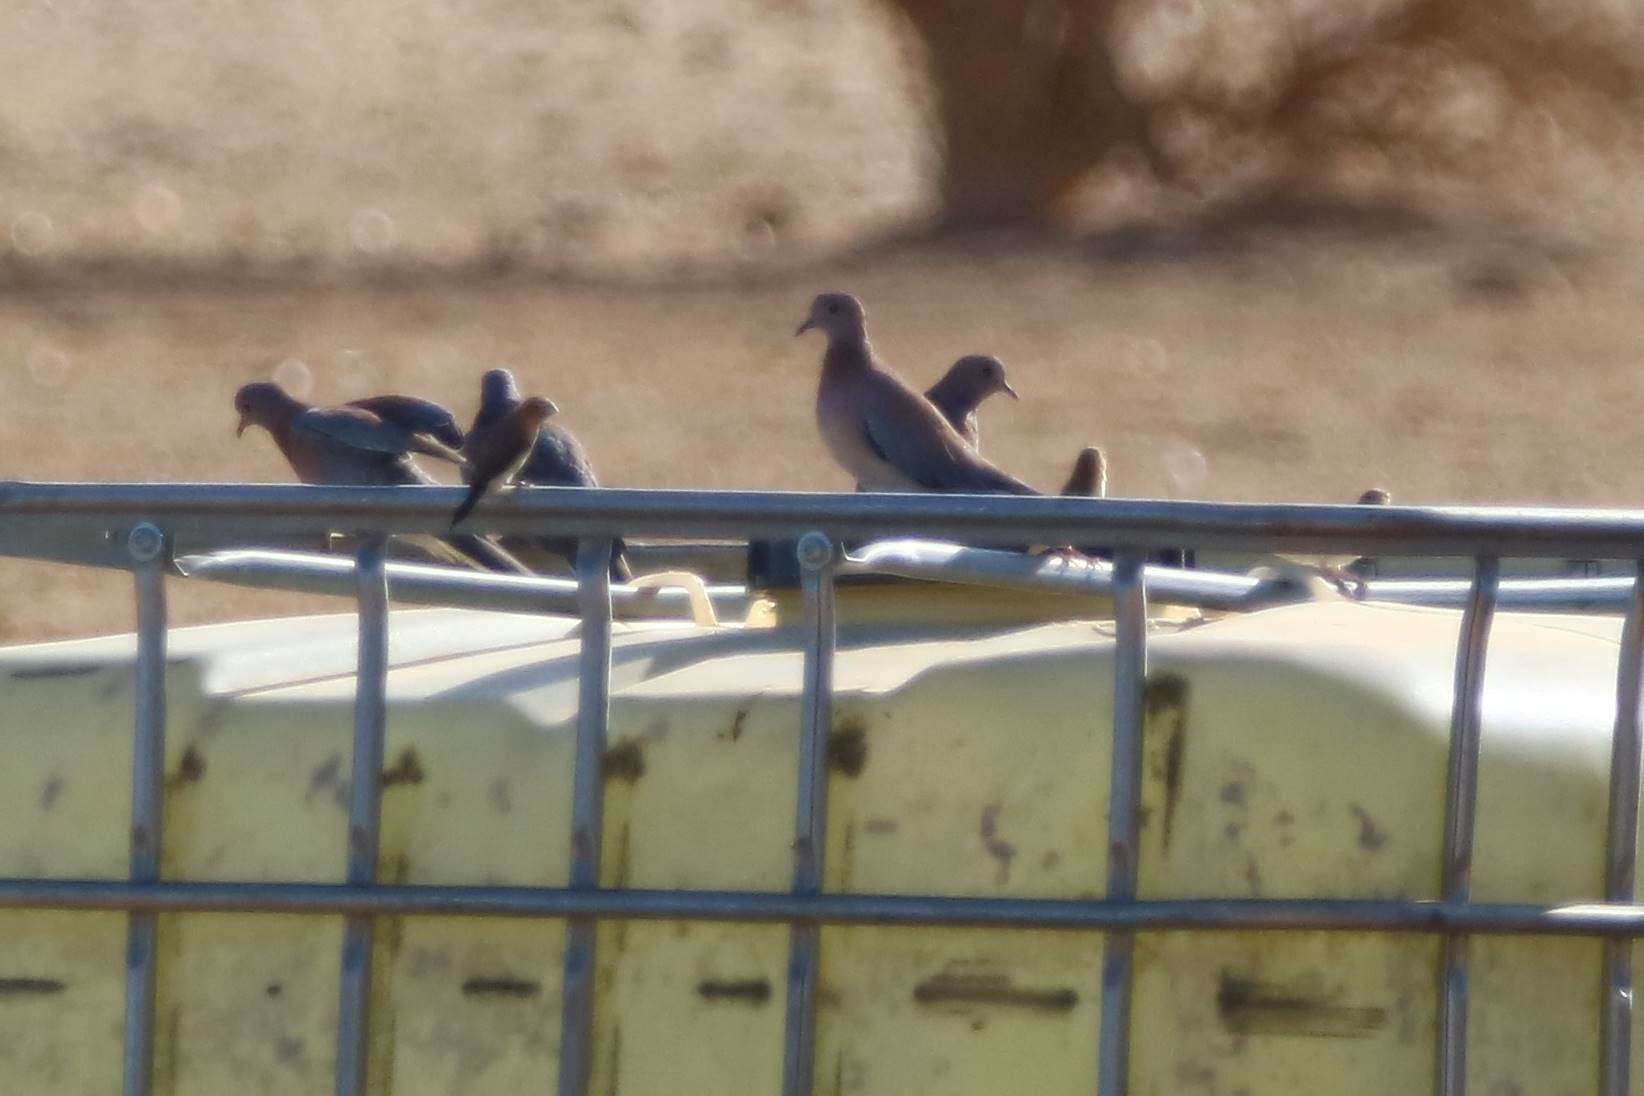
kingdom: Animalia
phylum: Chordata
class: Aves
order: Columbiformes
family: Columbidae
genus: Spilopelia
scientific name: Spilopelia senegalensis
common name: Laughing dove
